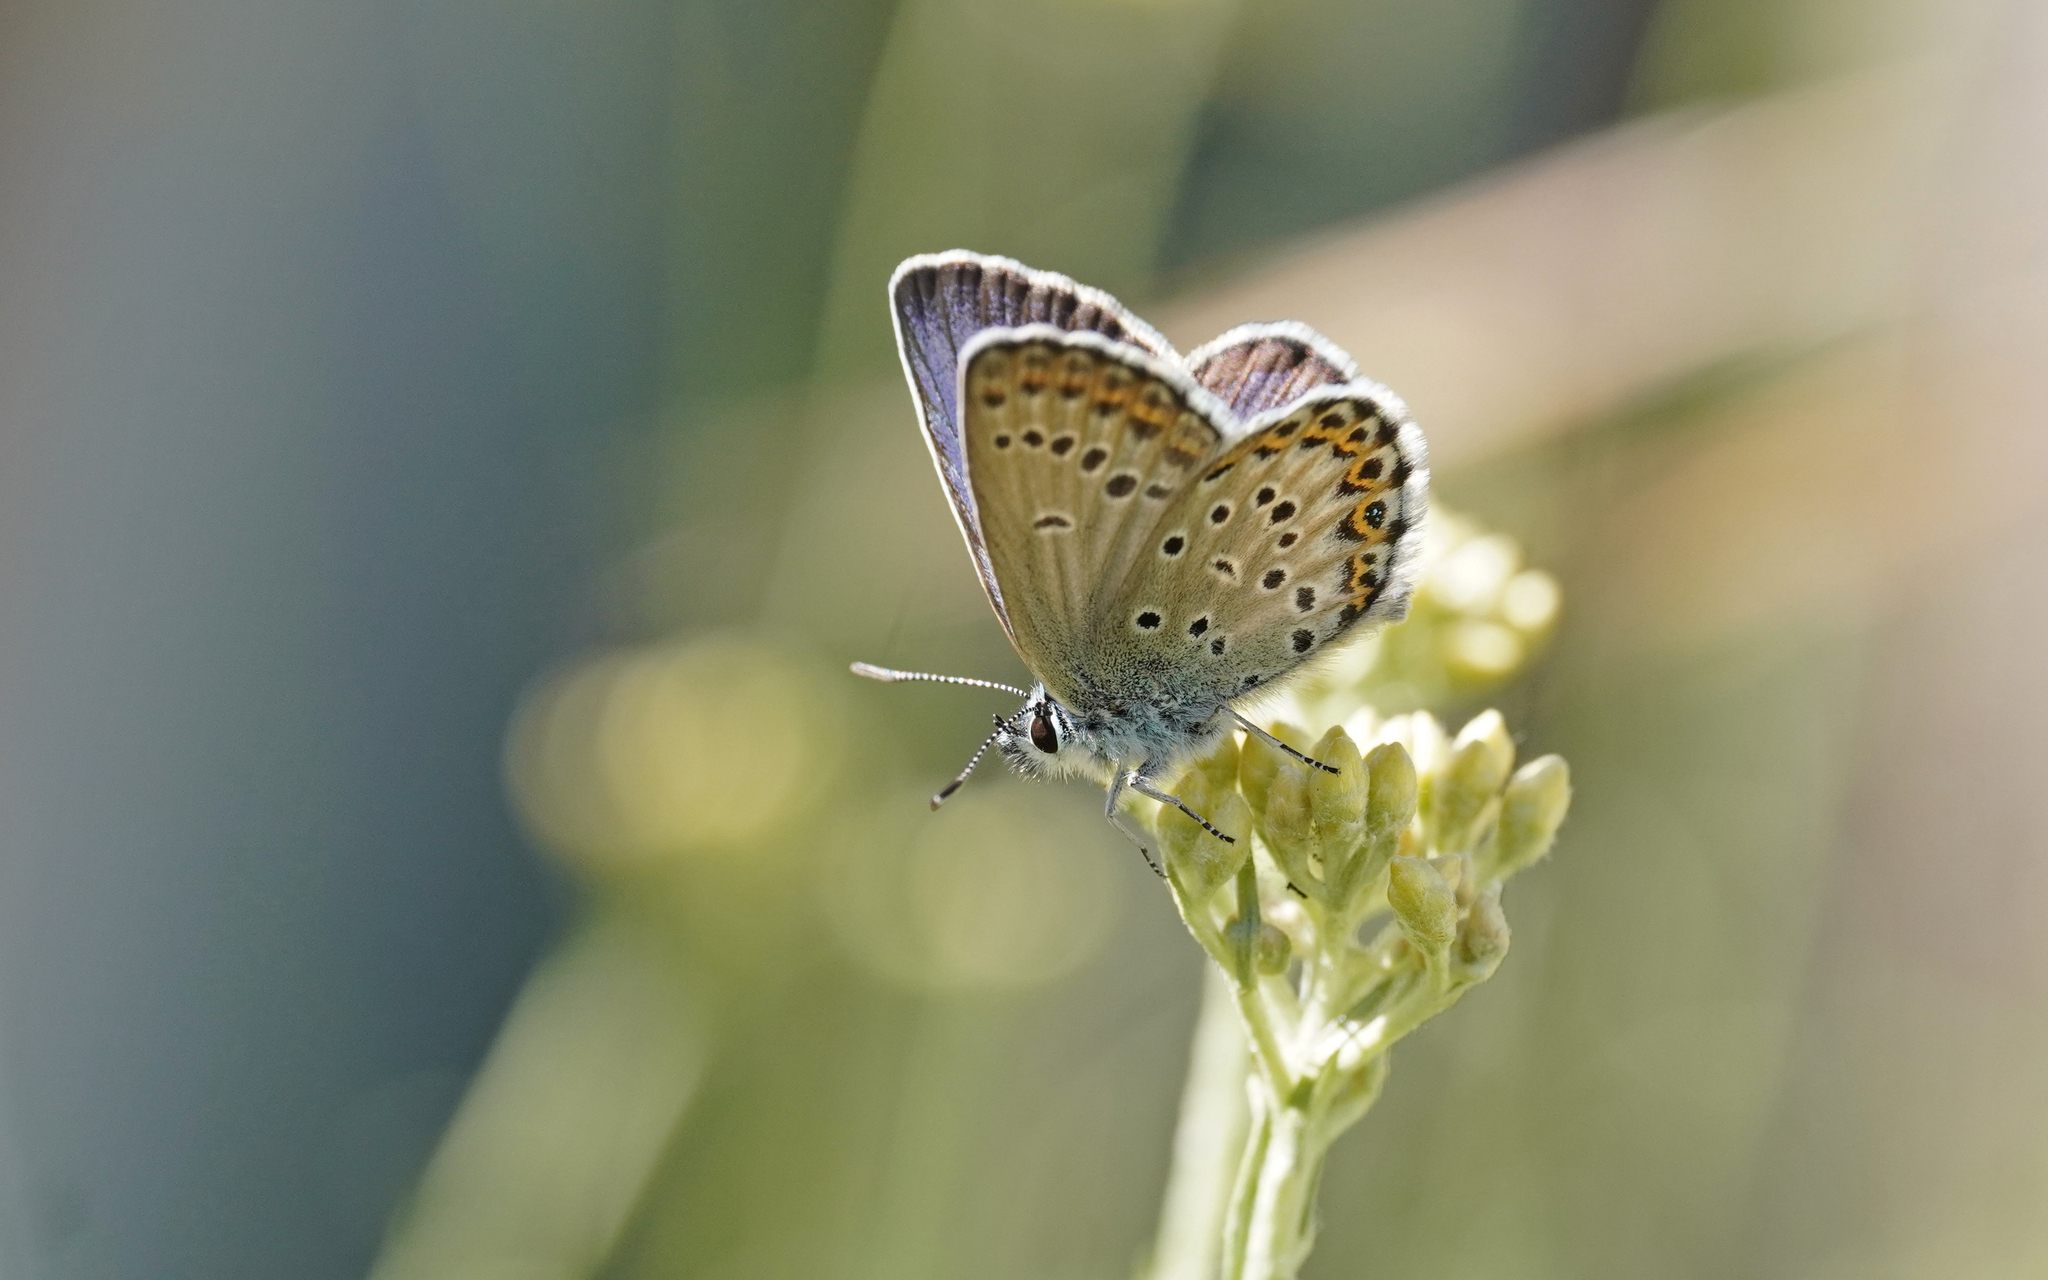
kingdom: Animalia
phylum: Arthropoda
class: Insecta
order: Lepidoptera
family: Lycaenidae
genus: Lycaeides
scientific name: Lycaeides idas
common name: Northern blue
